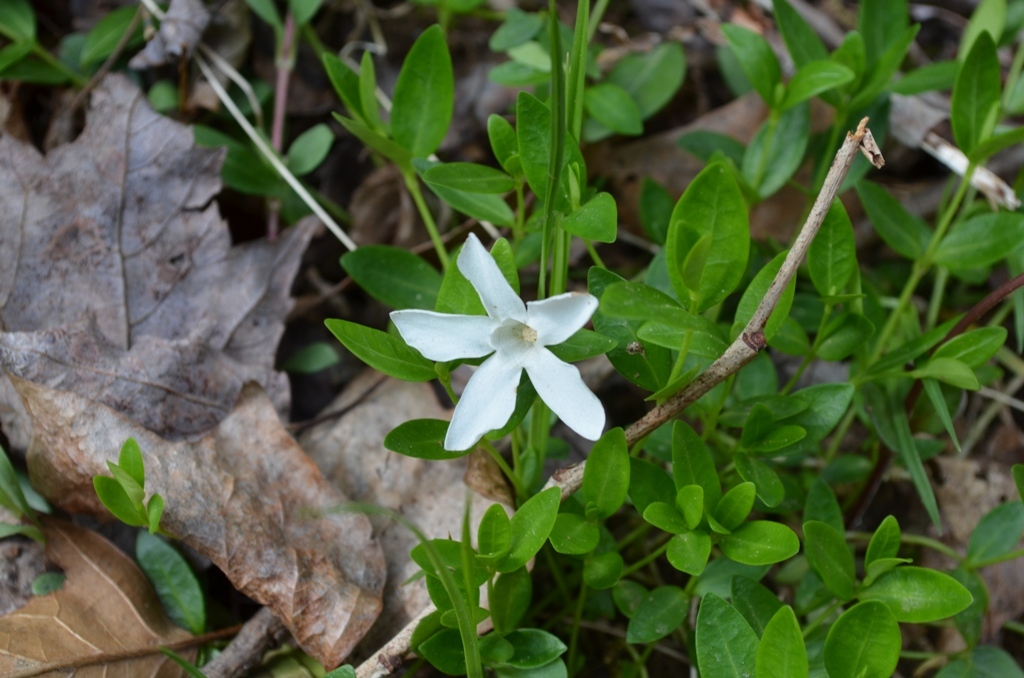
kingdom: Plantae
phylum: Tracheophyta
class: Magnoliopsida
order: Gentianales
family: Apocynaceae
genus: Vinca
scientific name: Vinca minor
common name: Lesser periwinkle
